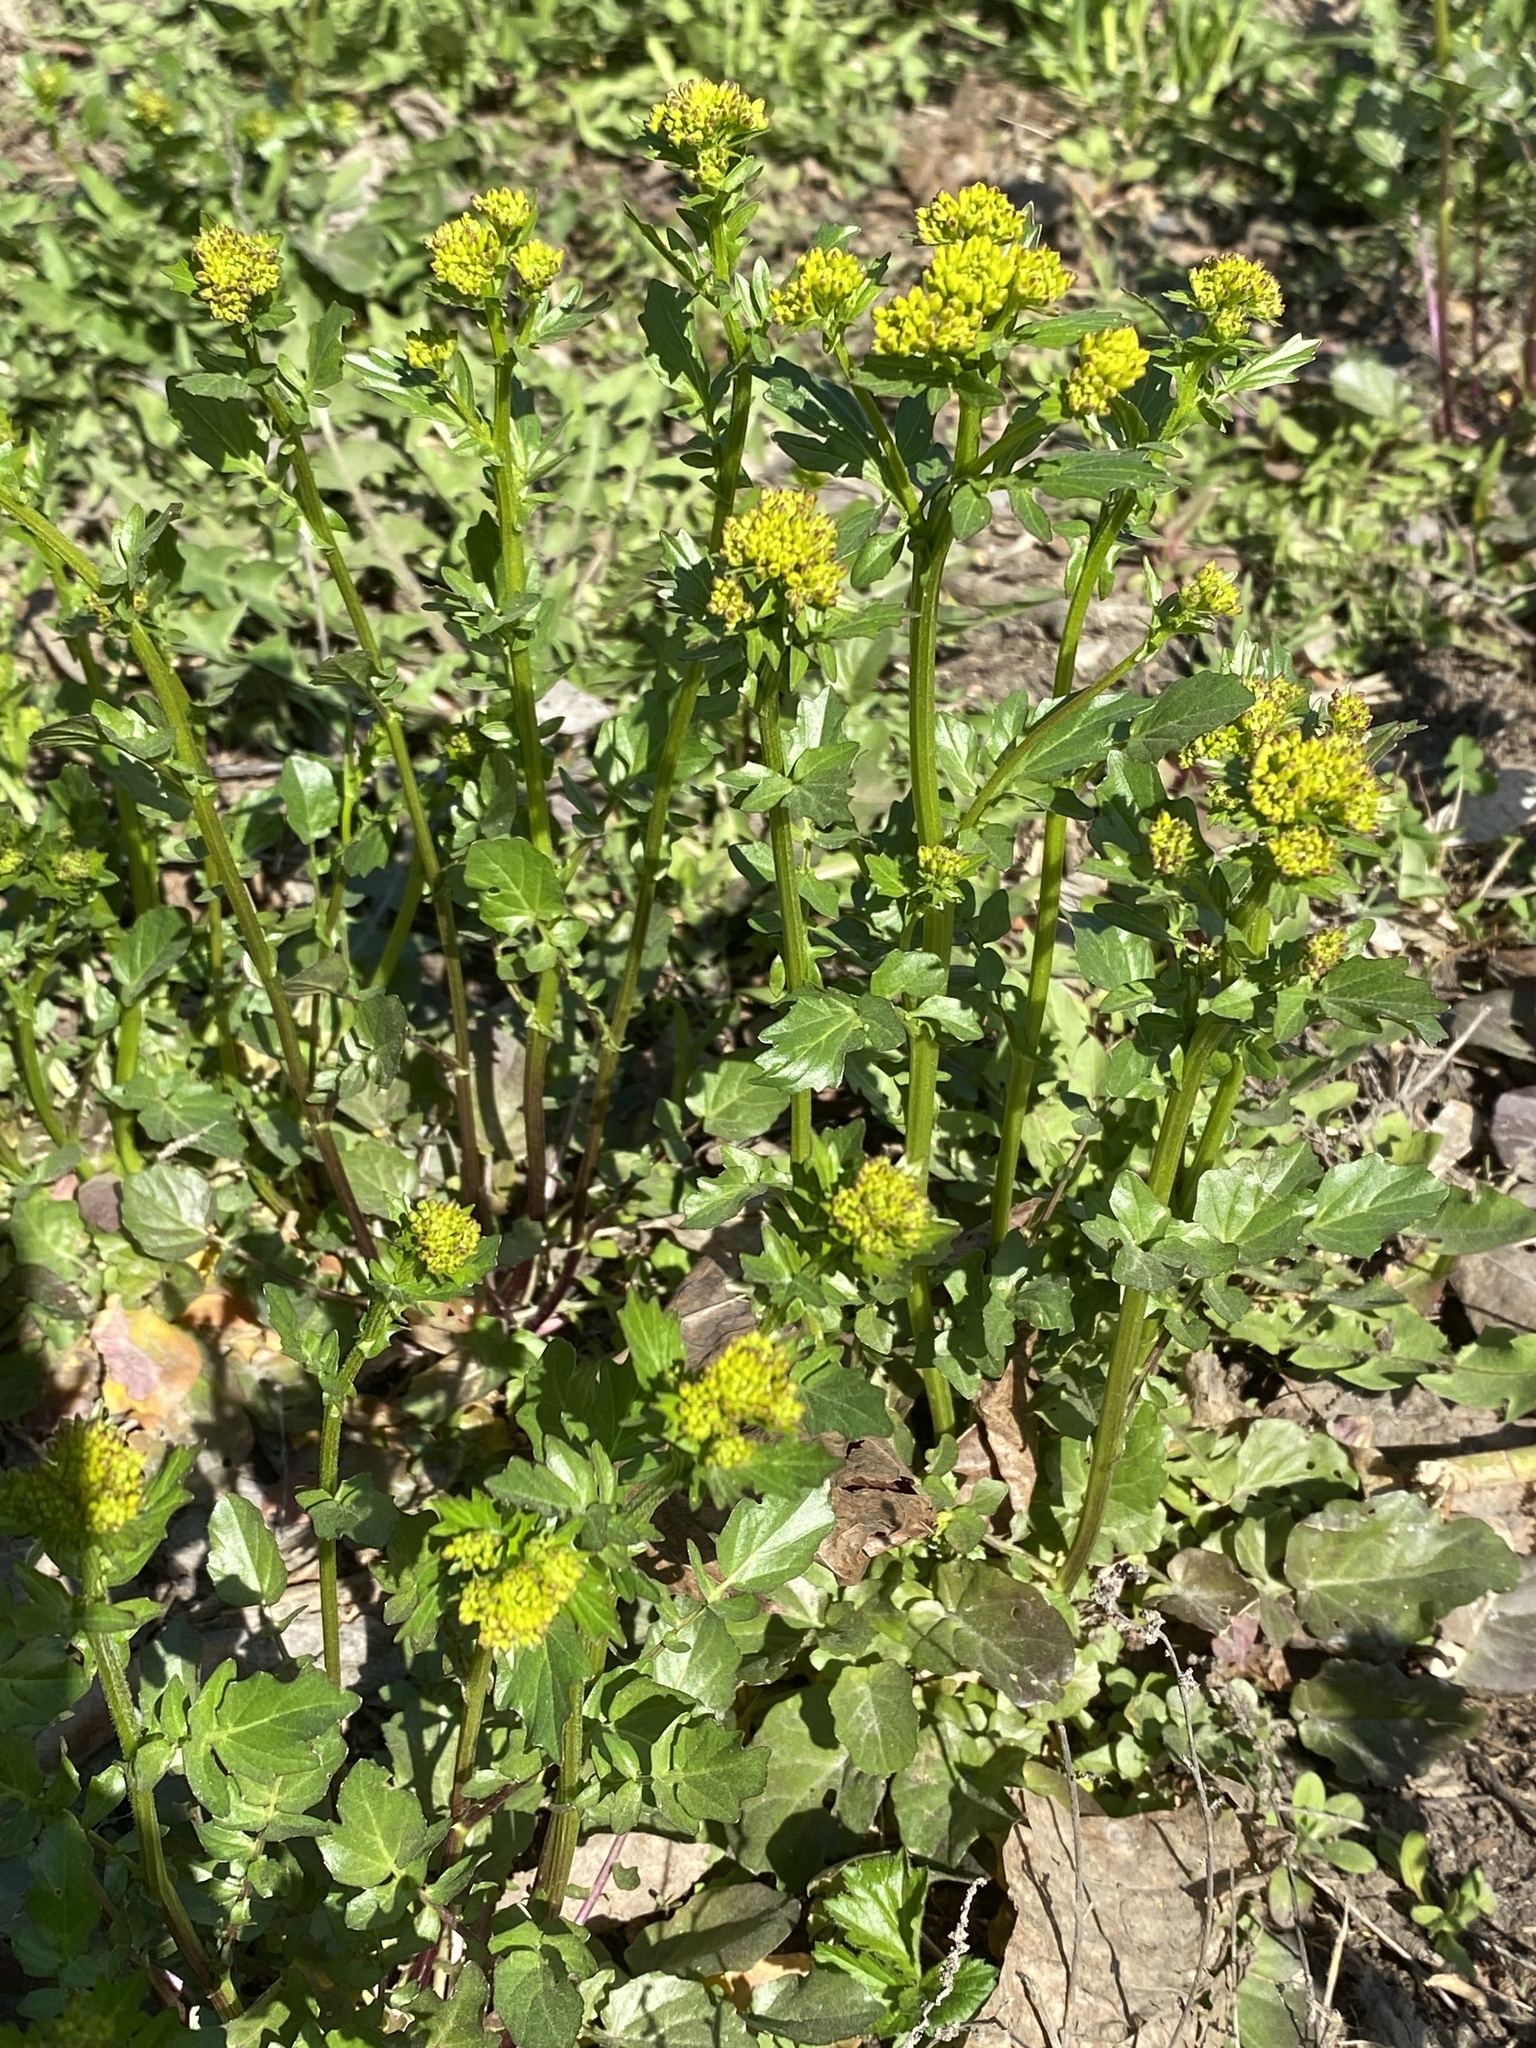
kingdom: Plantae
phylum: Tracheophyta
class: Magnoliopsida
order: Brassicales
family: Brassicaceae
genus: Barbarea
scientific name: Barbarea vulgaris
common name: Cressy-greens
